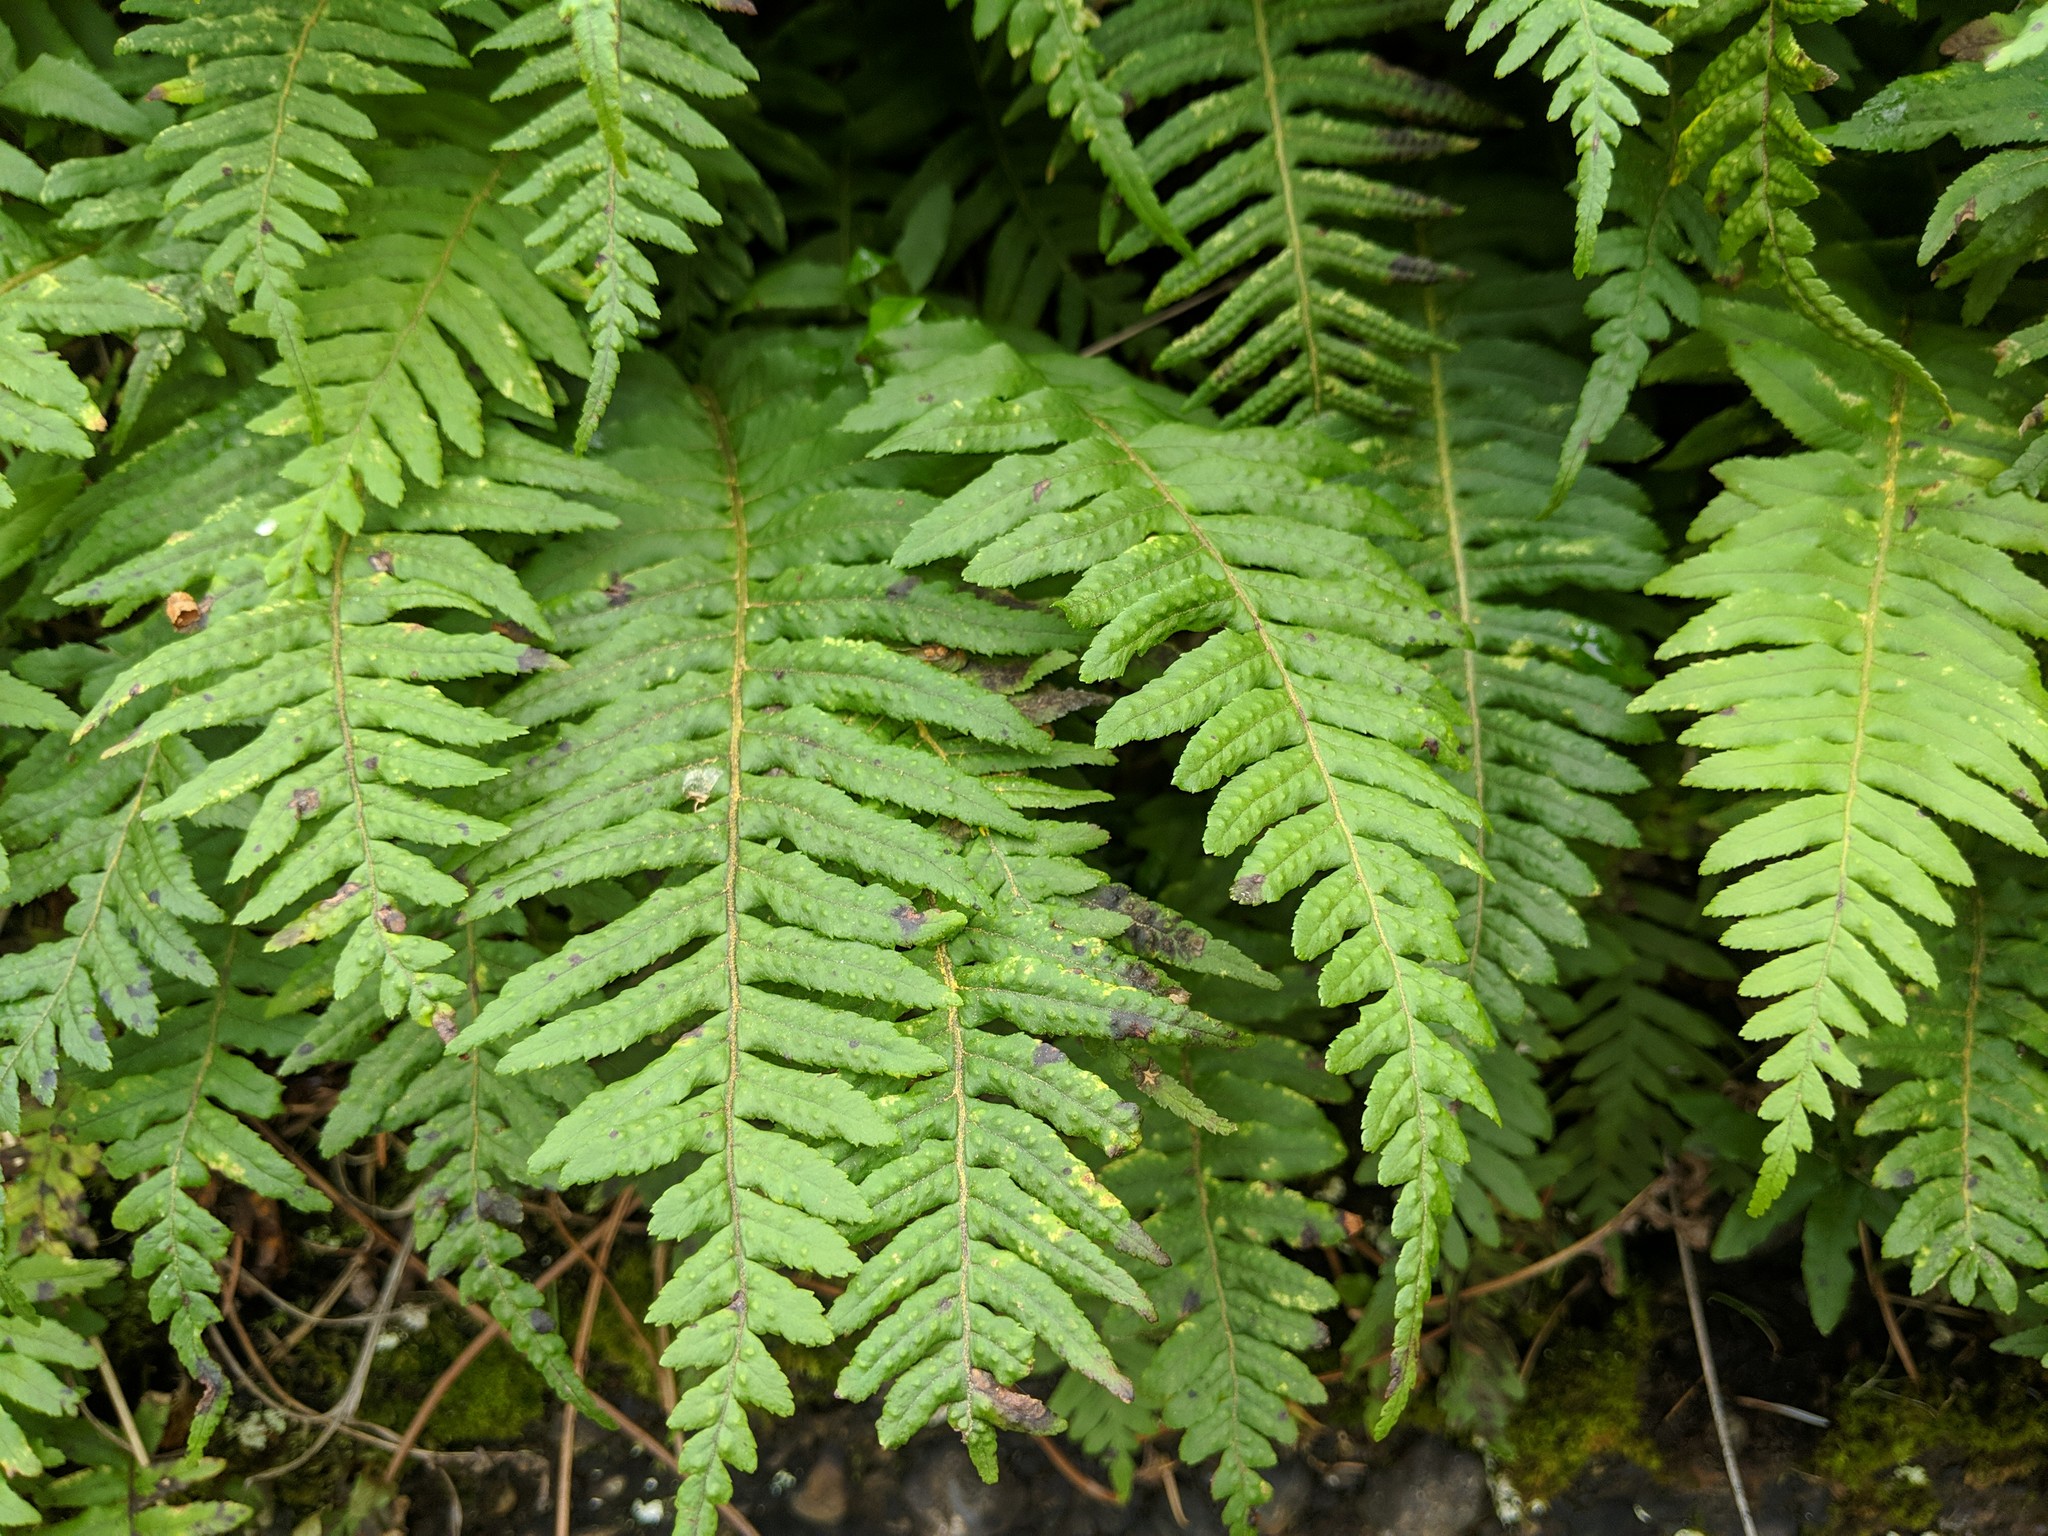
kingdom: Plantae
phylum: Tracheophyta
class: Polypodiopsida
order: Polypodiales
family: Polypodiaceae
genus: Polypodium
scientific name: Polypodium glycyrrhiza
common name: Licorice fern
